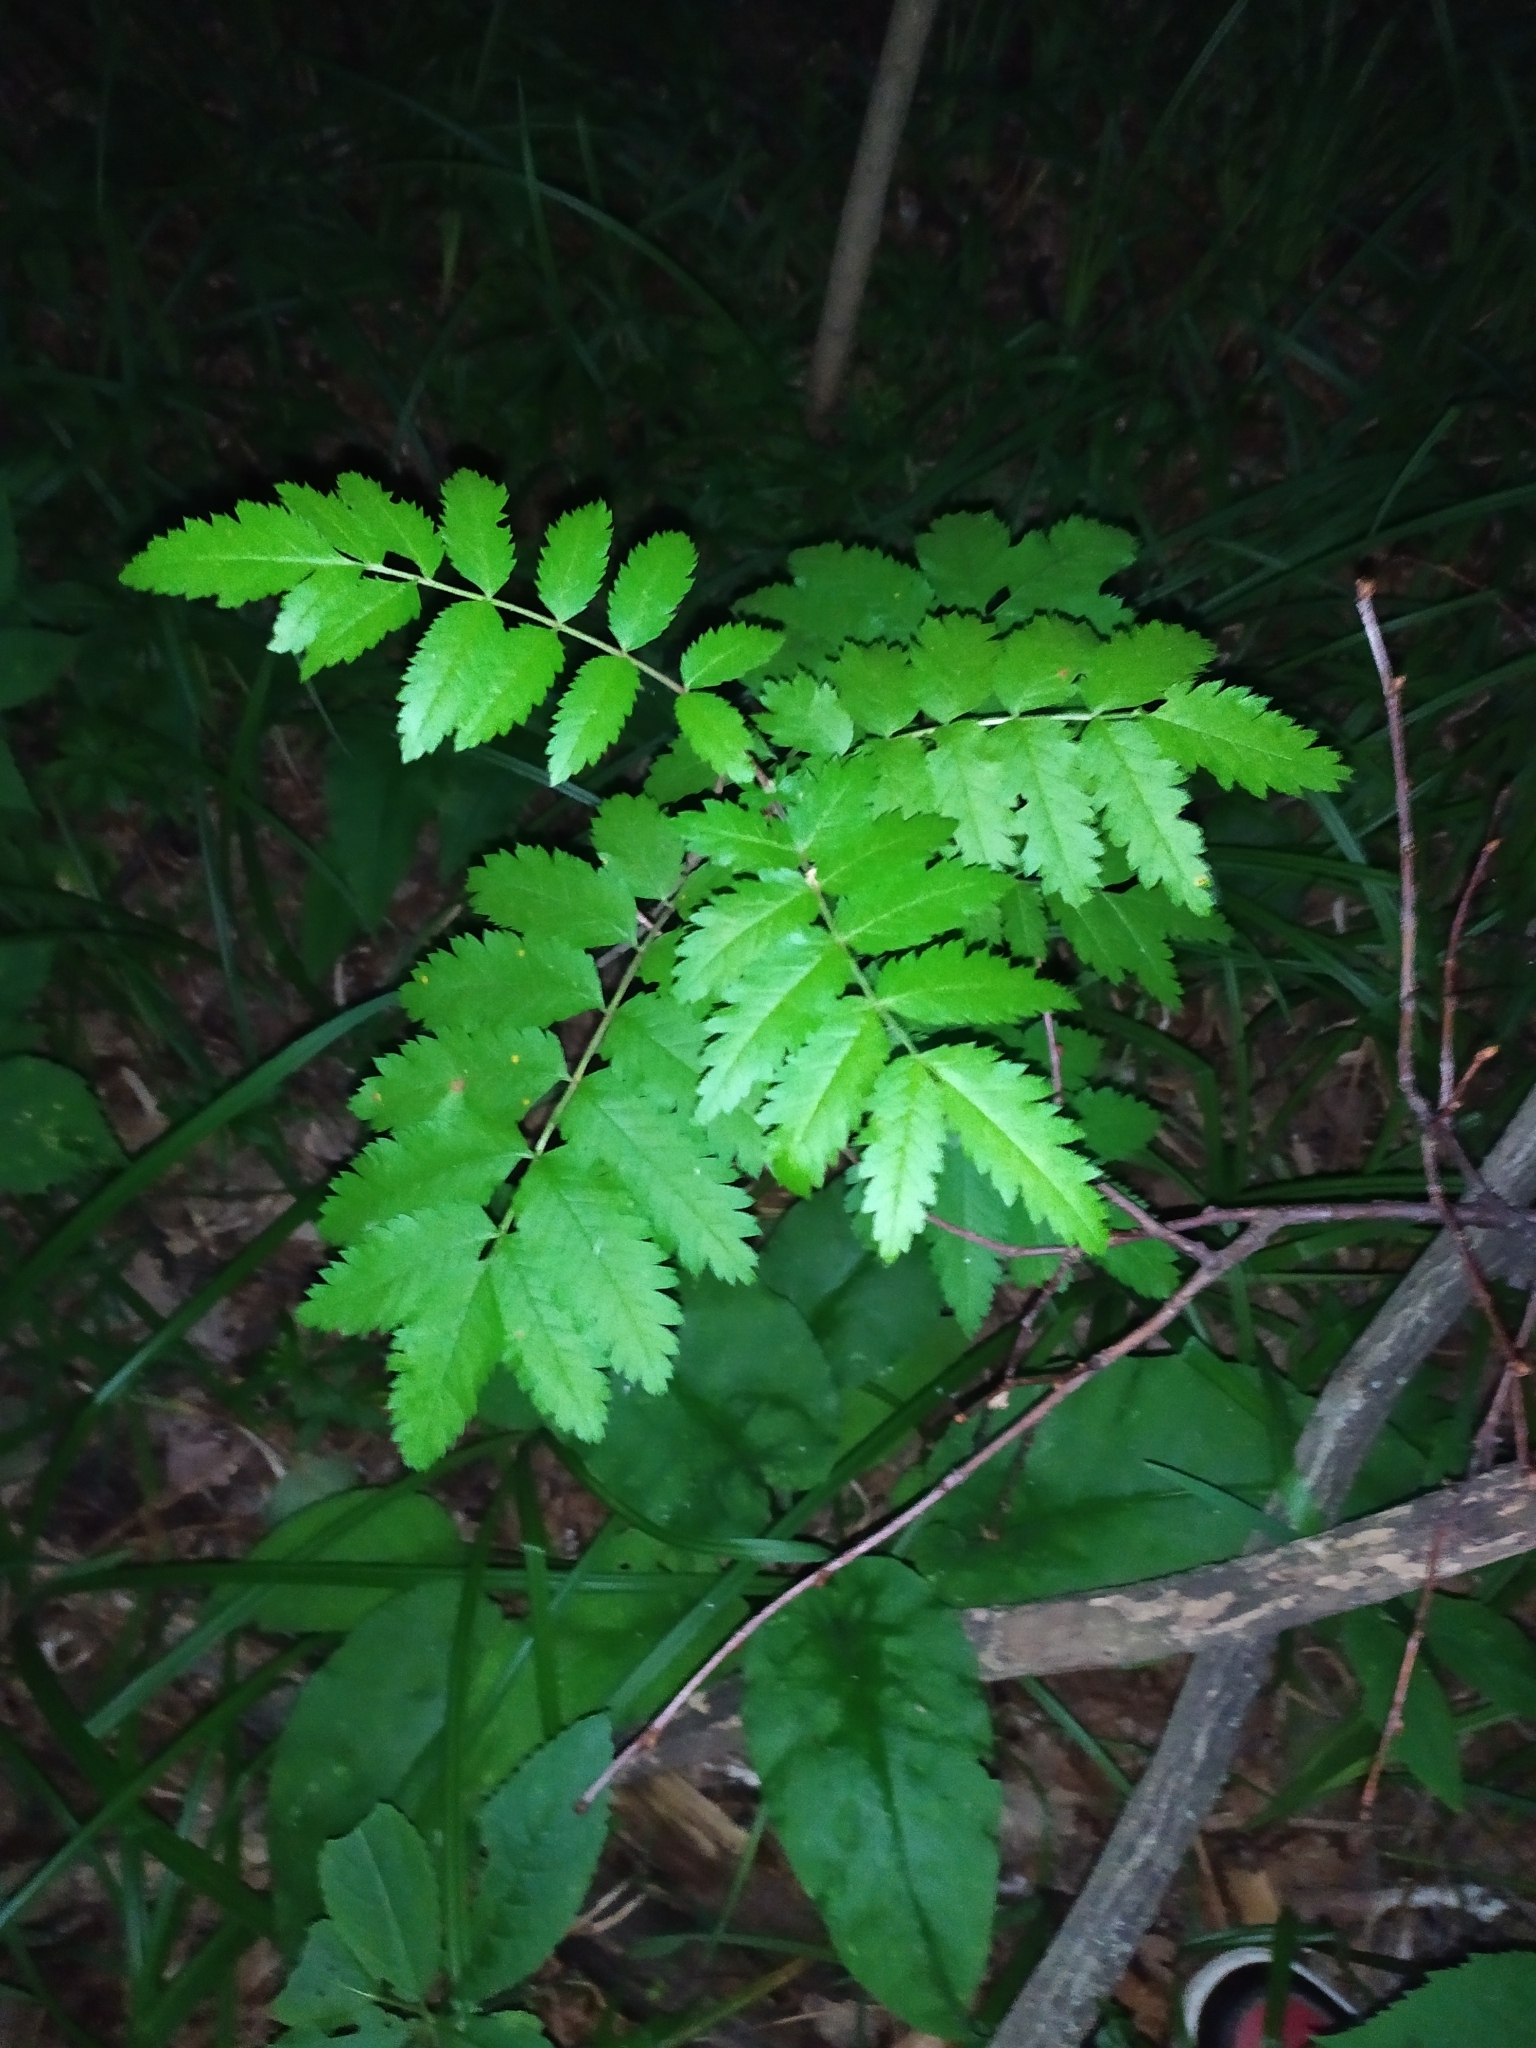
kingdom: Plantae
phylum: Tracheophyta
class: Magnoliopsida
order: Rosales
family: Rosaceae
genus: Sorbus
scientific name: Sorbus aucuparia
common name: Rowan
